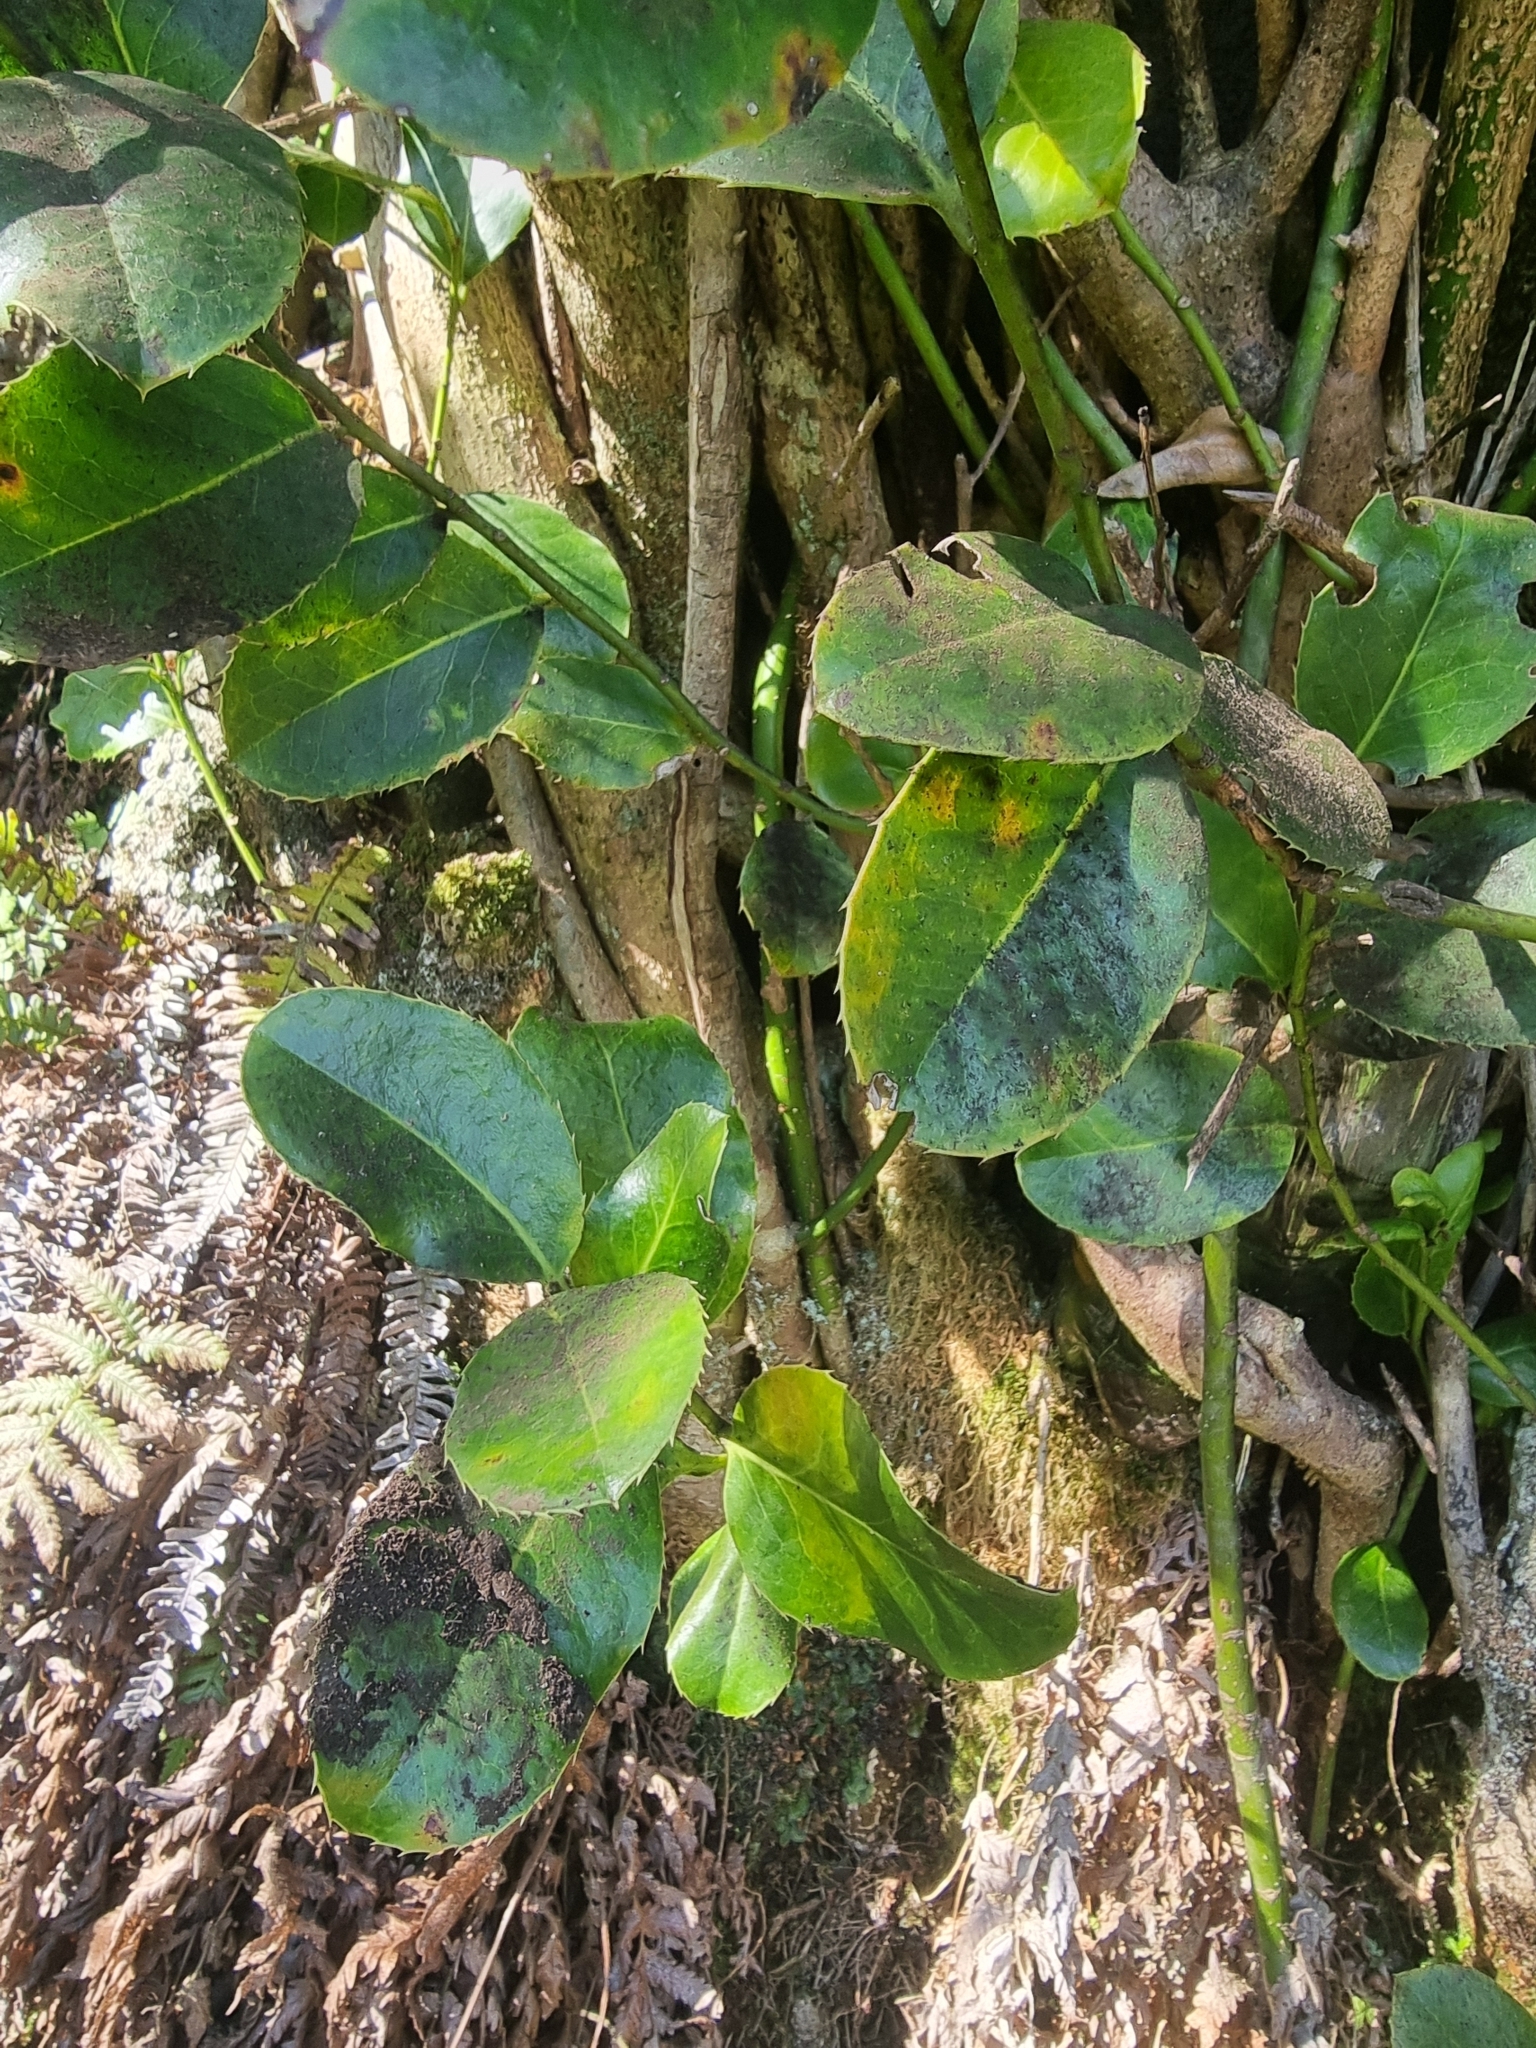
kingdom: Plantae
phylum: Tracheophyta
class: Magnoliopsida
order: Aquifoliales
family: Aquifoliaceae
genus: Ilex
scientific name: Ilex perado
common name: Madeira holly
